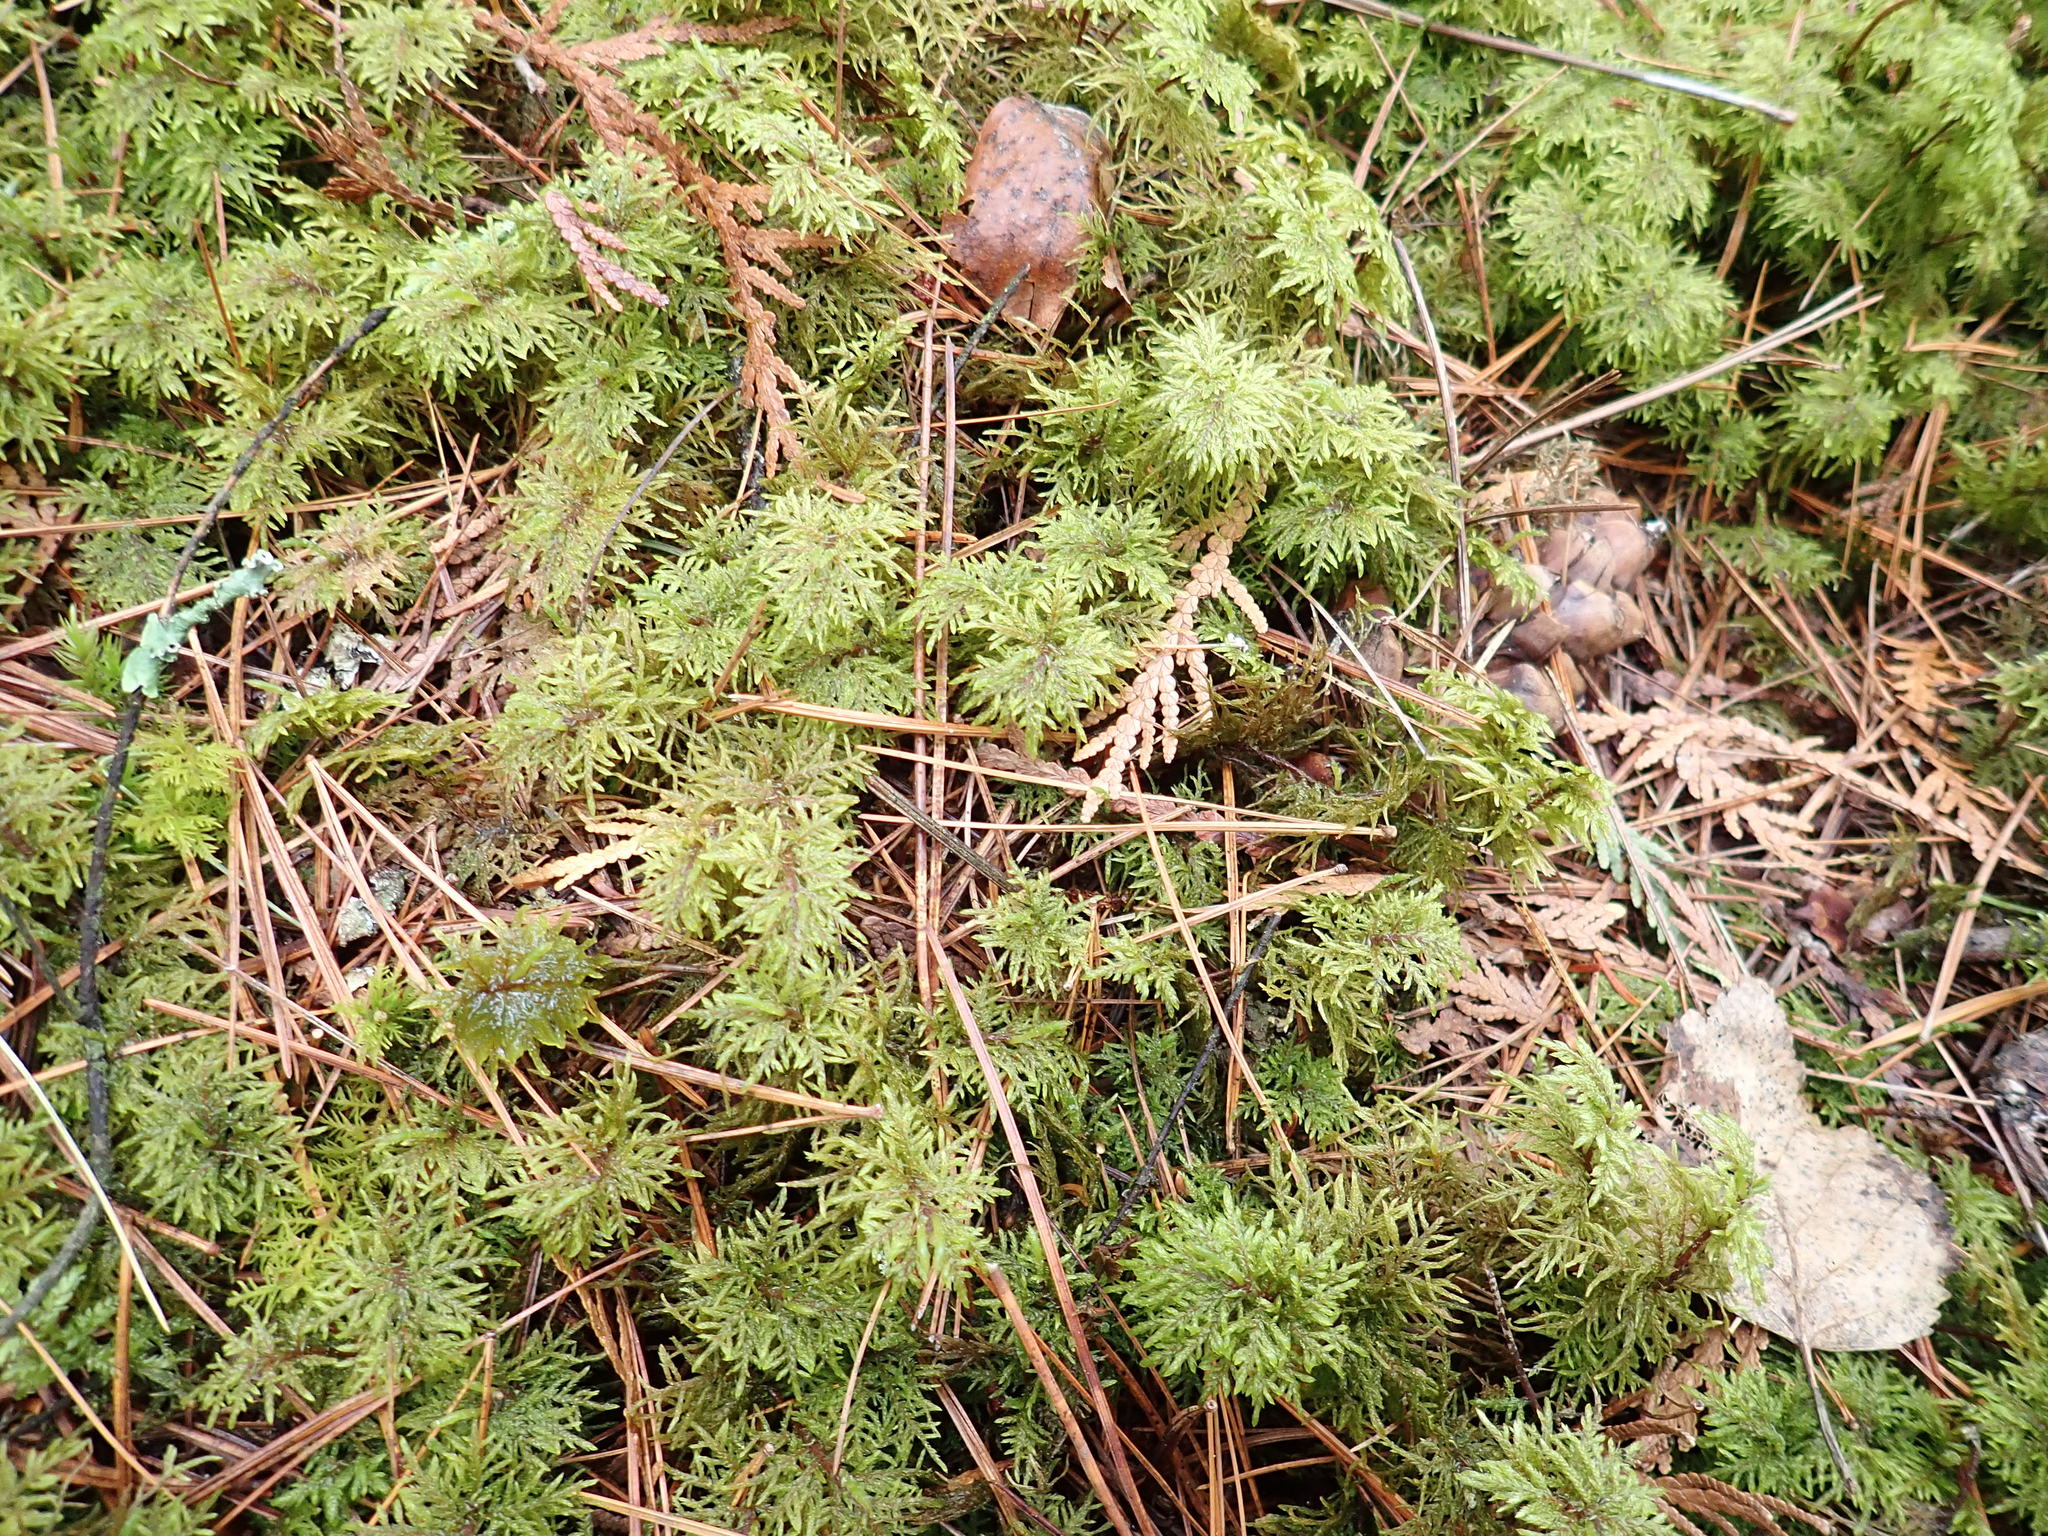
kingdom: Plantae
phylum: Bryophyta
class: Bryopsida
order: Hypnales
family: Hylocomiaceae
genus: Hylocomium
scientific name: Hylocomium splendens
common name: Stairstep moss
